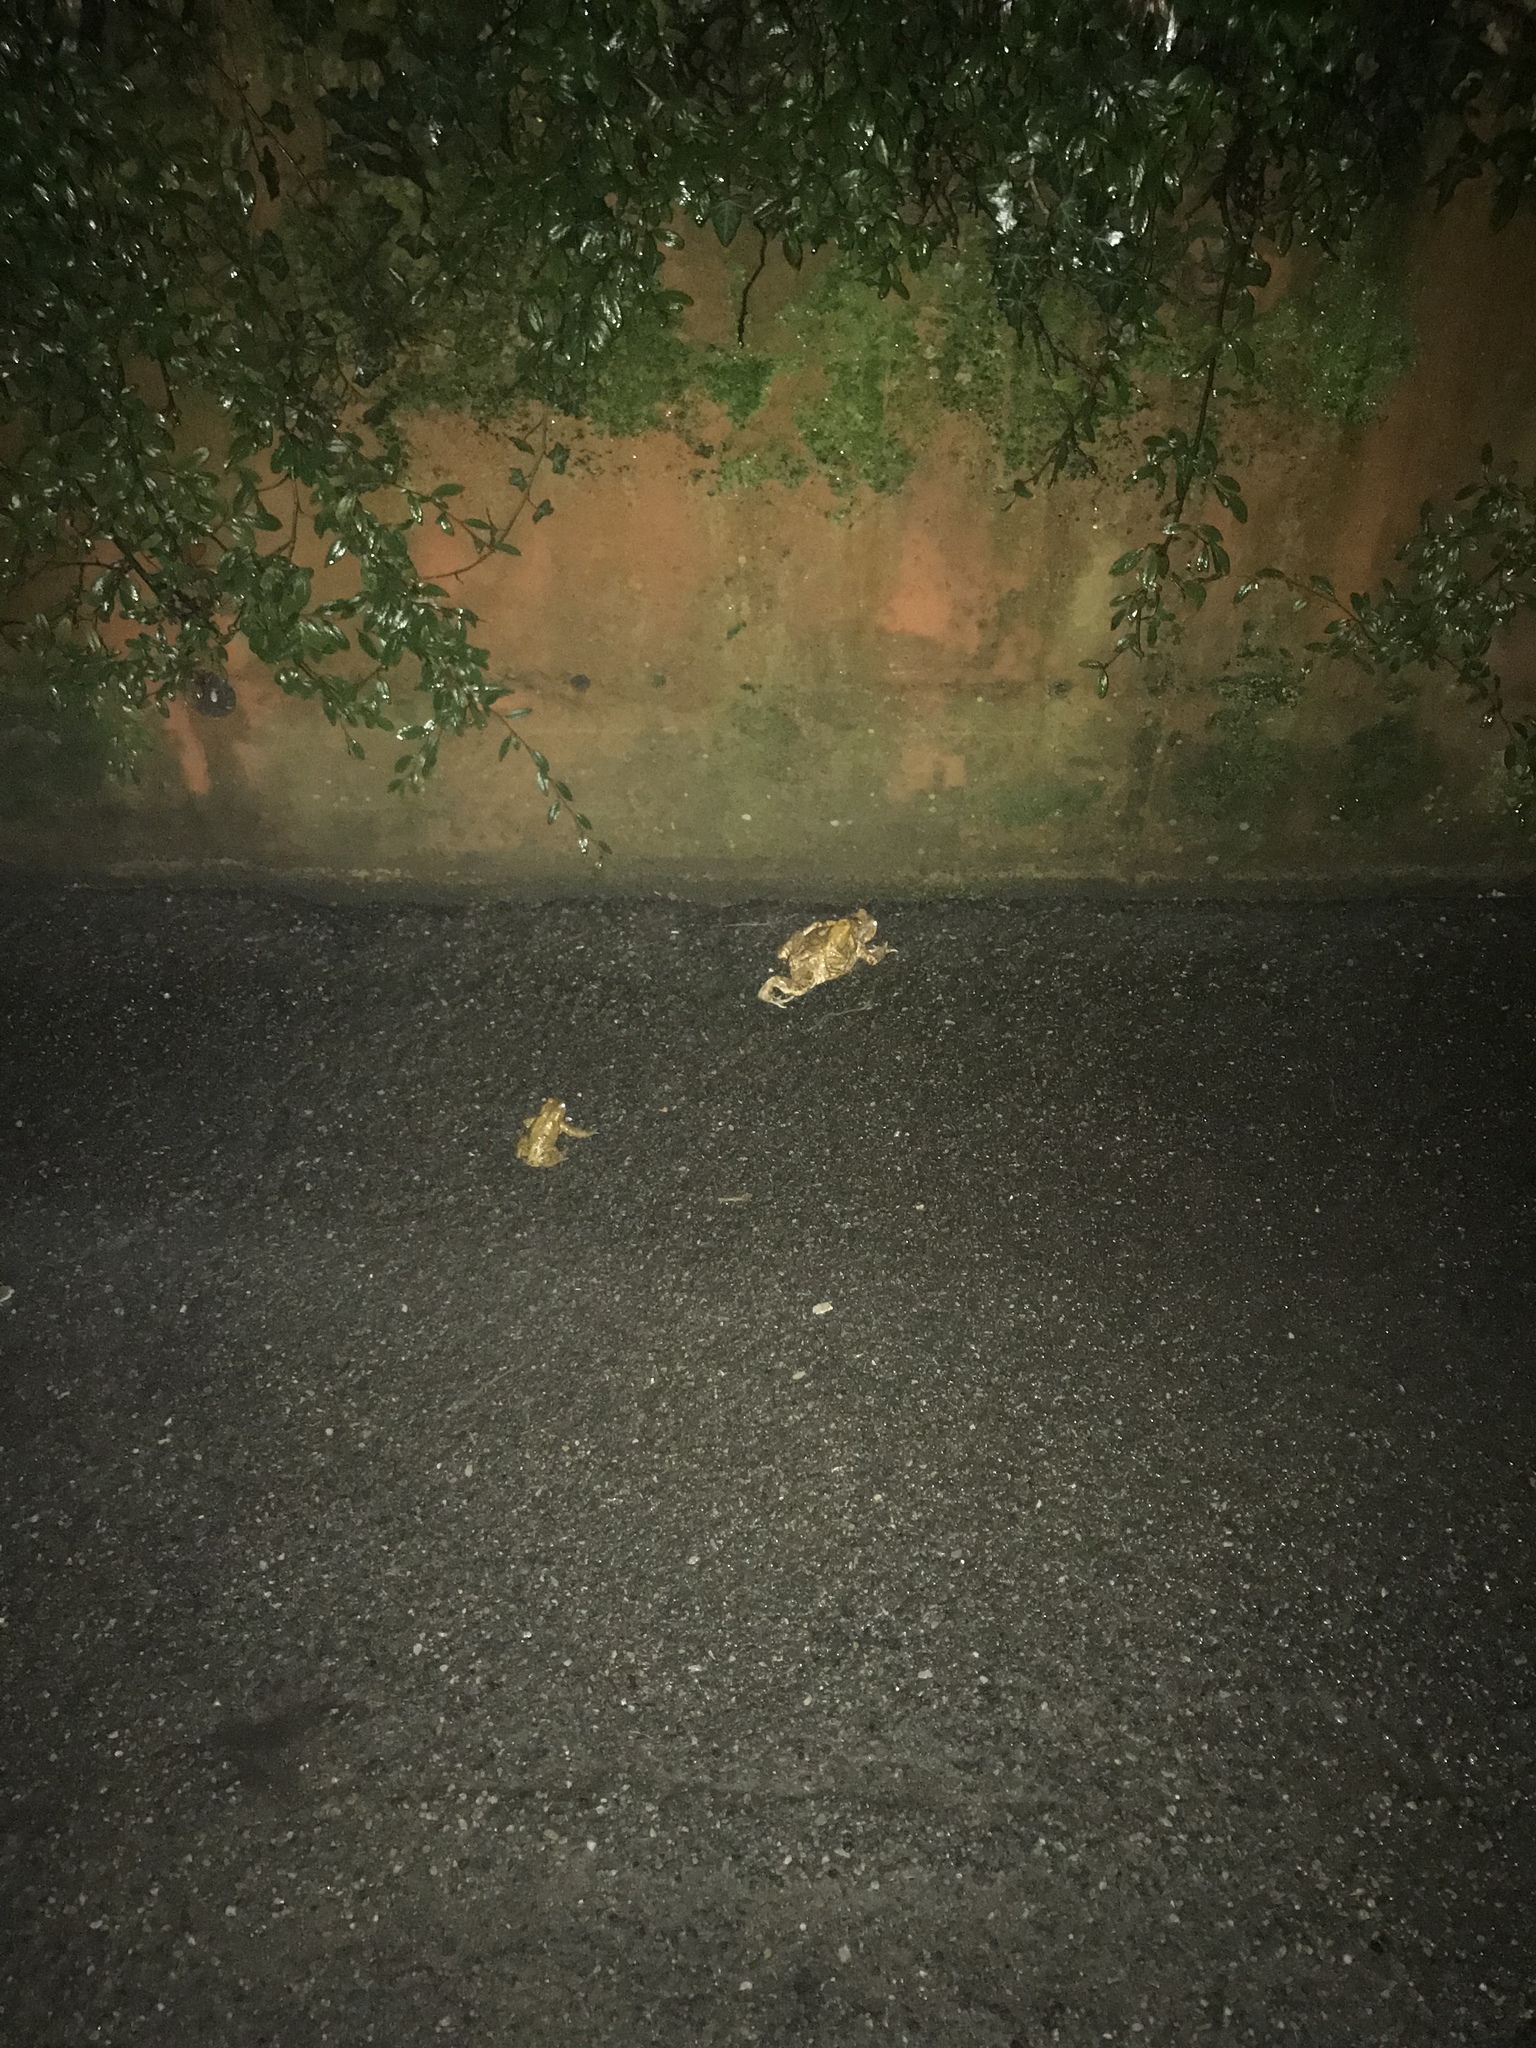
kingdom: Animalia
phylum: Chordata
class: Amphibia
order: Anura
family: Bufonidae
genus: Bufo
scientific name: Bufo bufo
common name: Common toad
